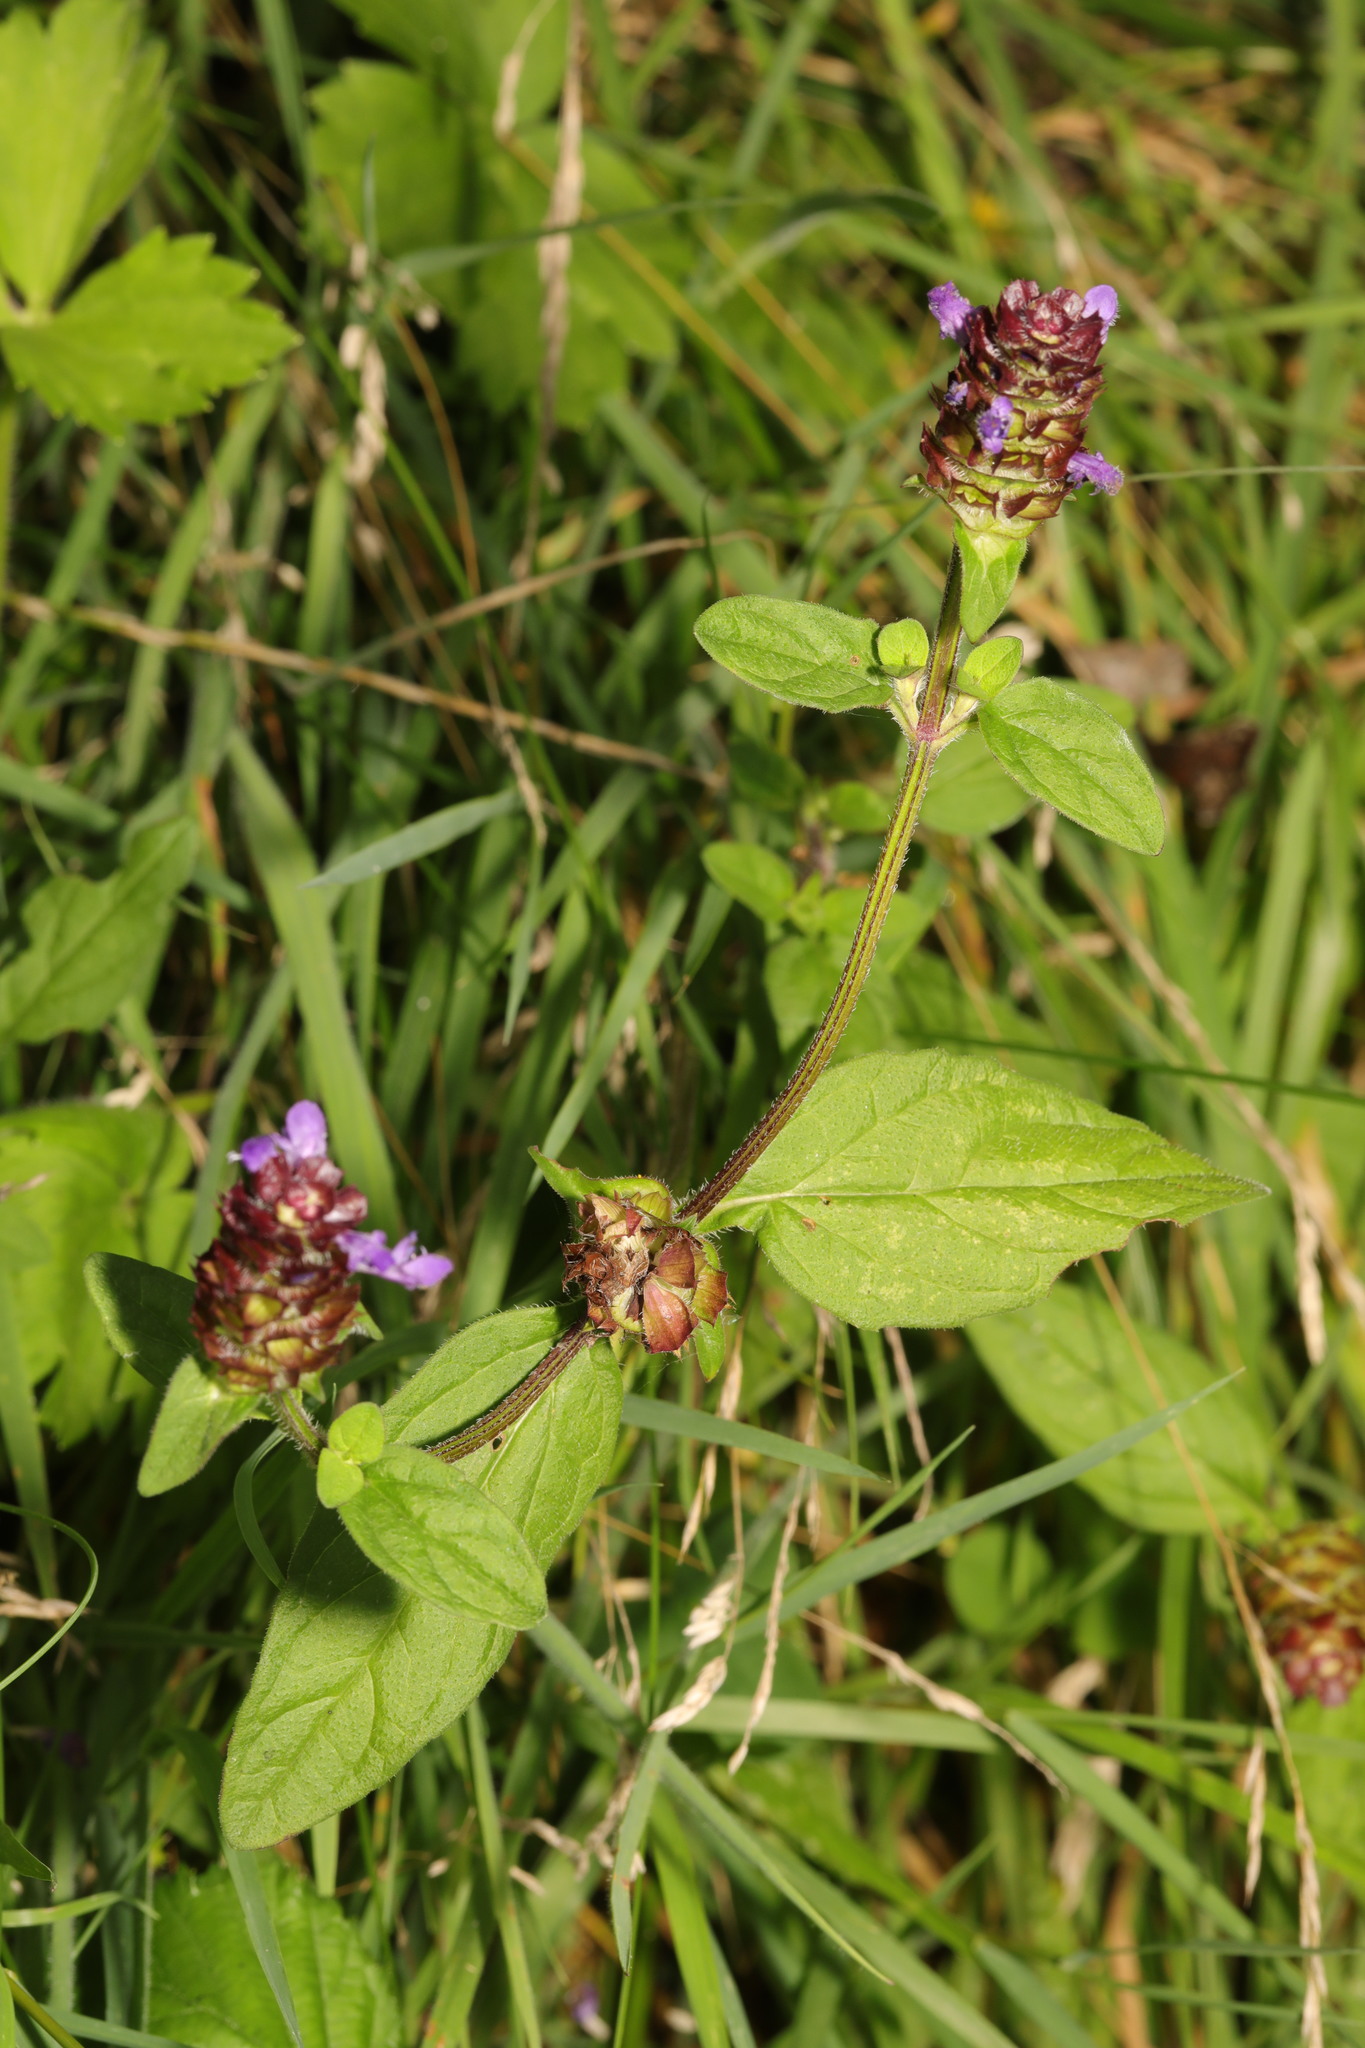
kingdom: Plantae
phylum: Tracheophyta
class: Magnoliopsida
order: Lamiales
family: Lamiaceae
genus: Prunella
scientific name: Prunella vulgaris
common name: Heal-all
